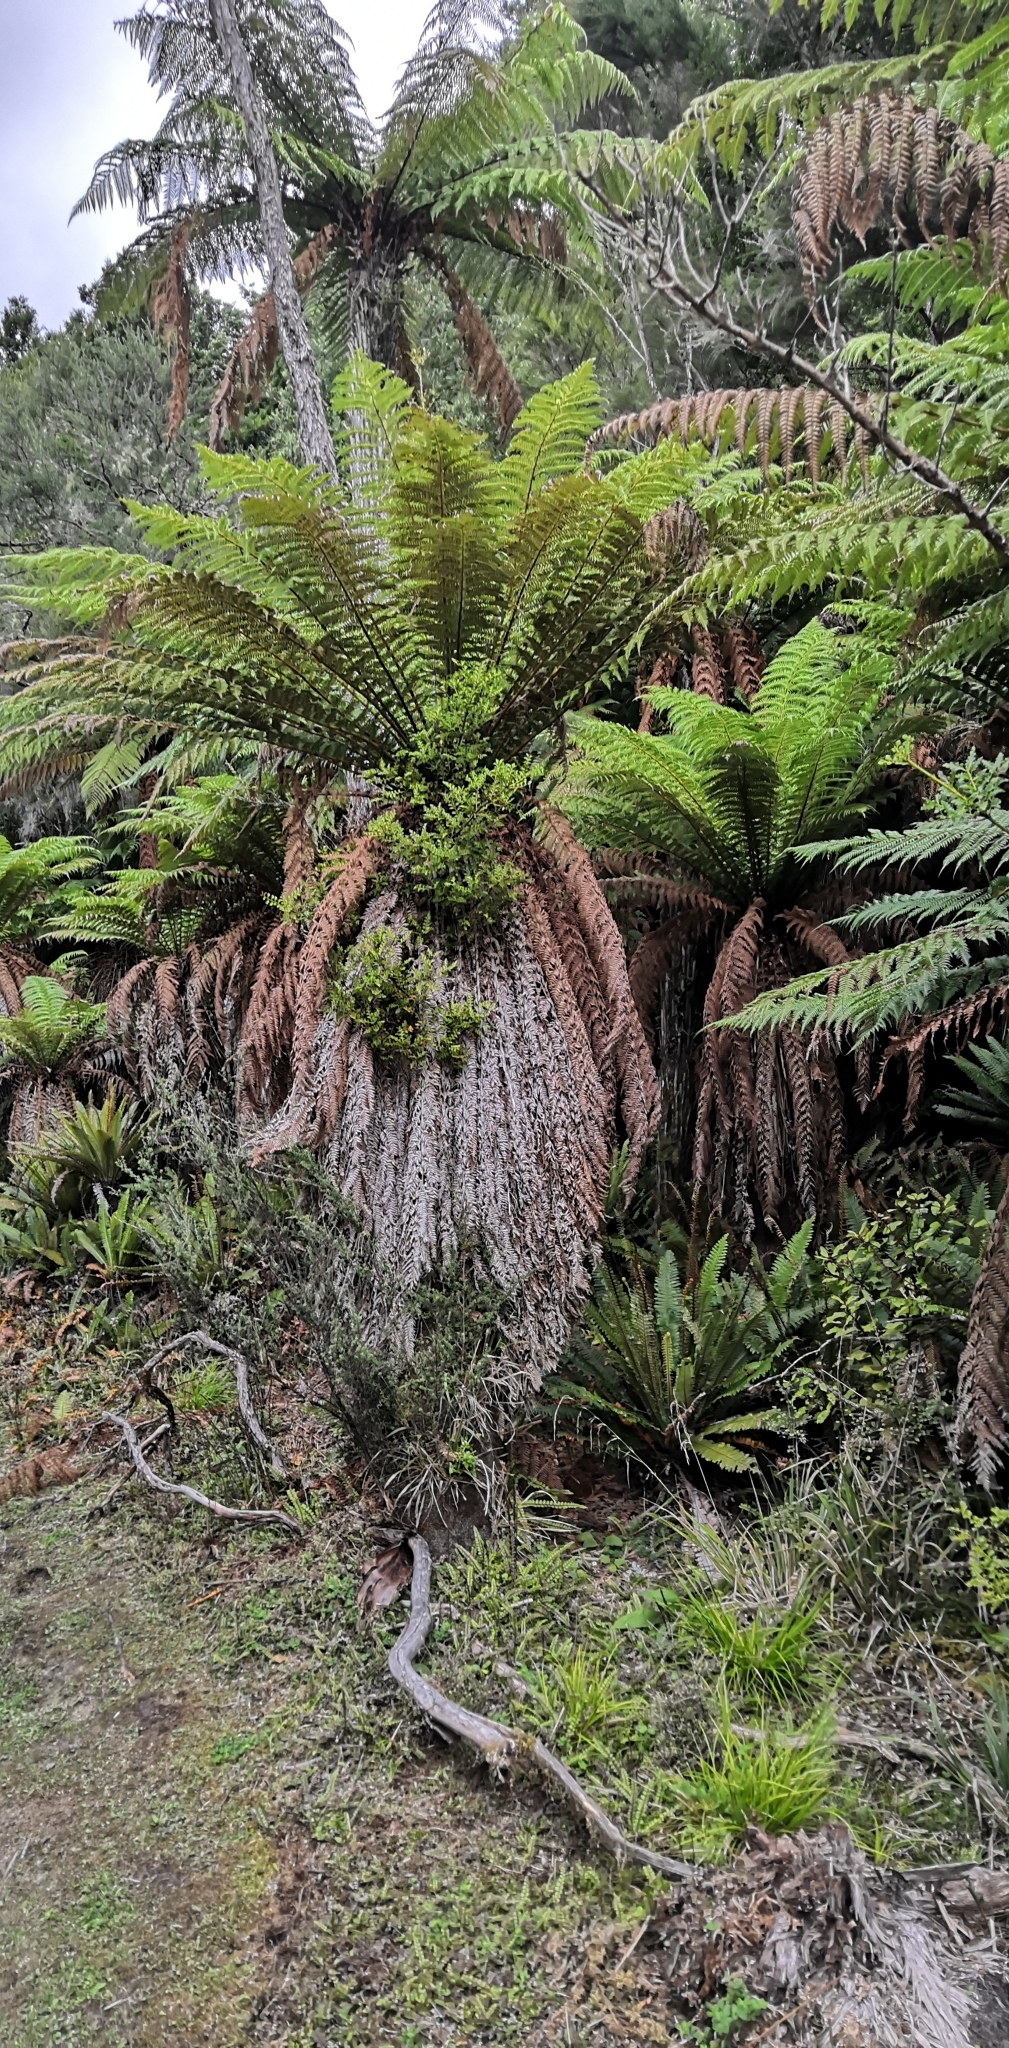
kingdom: Plantae
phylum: Tracheophyta
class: Polypodiopsida
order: Cyatheales
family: Dicksoniaceae
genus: Dicksonia
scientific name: Dicksonia fibrosa
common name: Golden tree fern
